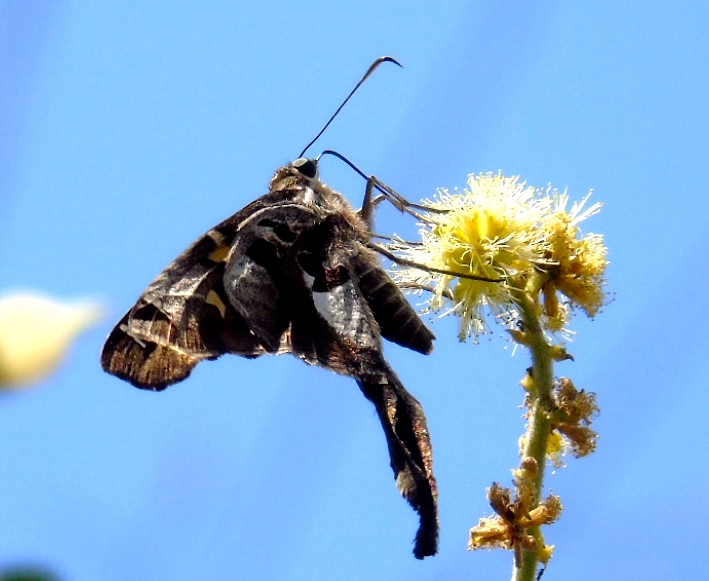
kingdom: Animalia
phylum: Arthropoda
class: Insecta
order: Lepidoptera
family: Hesperiidae
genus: Chioides
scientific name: Chioides zilpa
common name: Zilpa longtail
